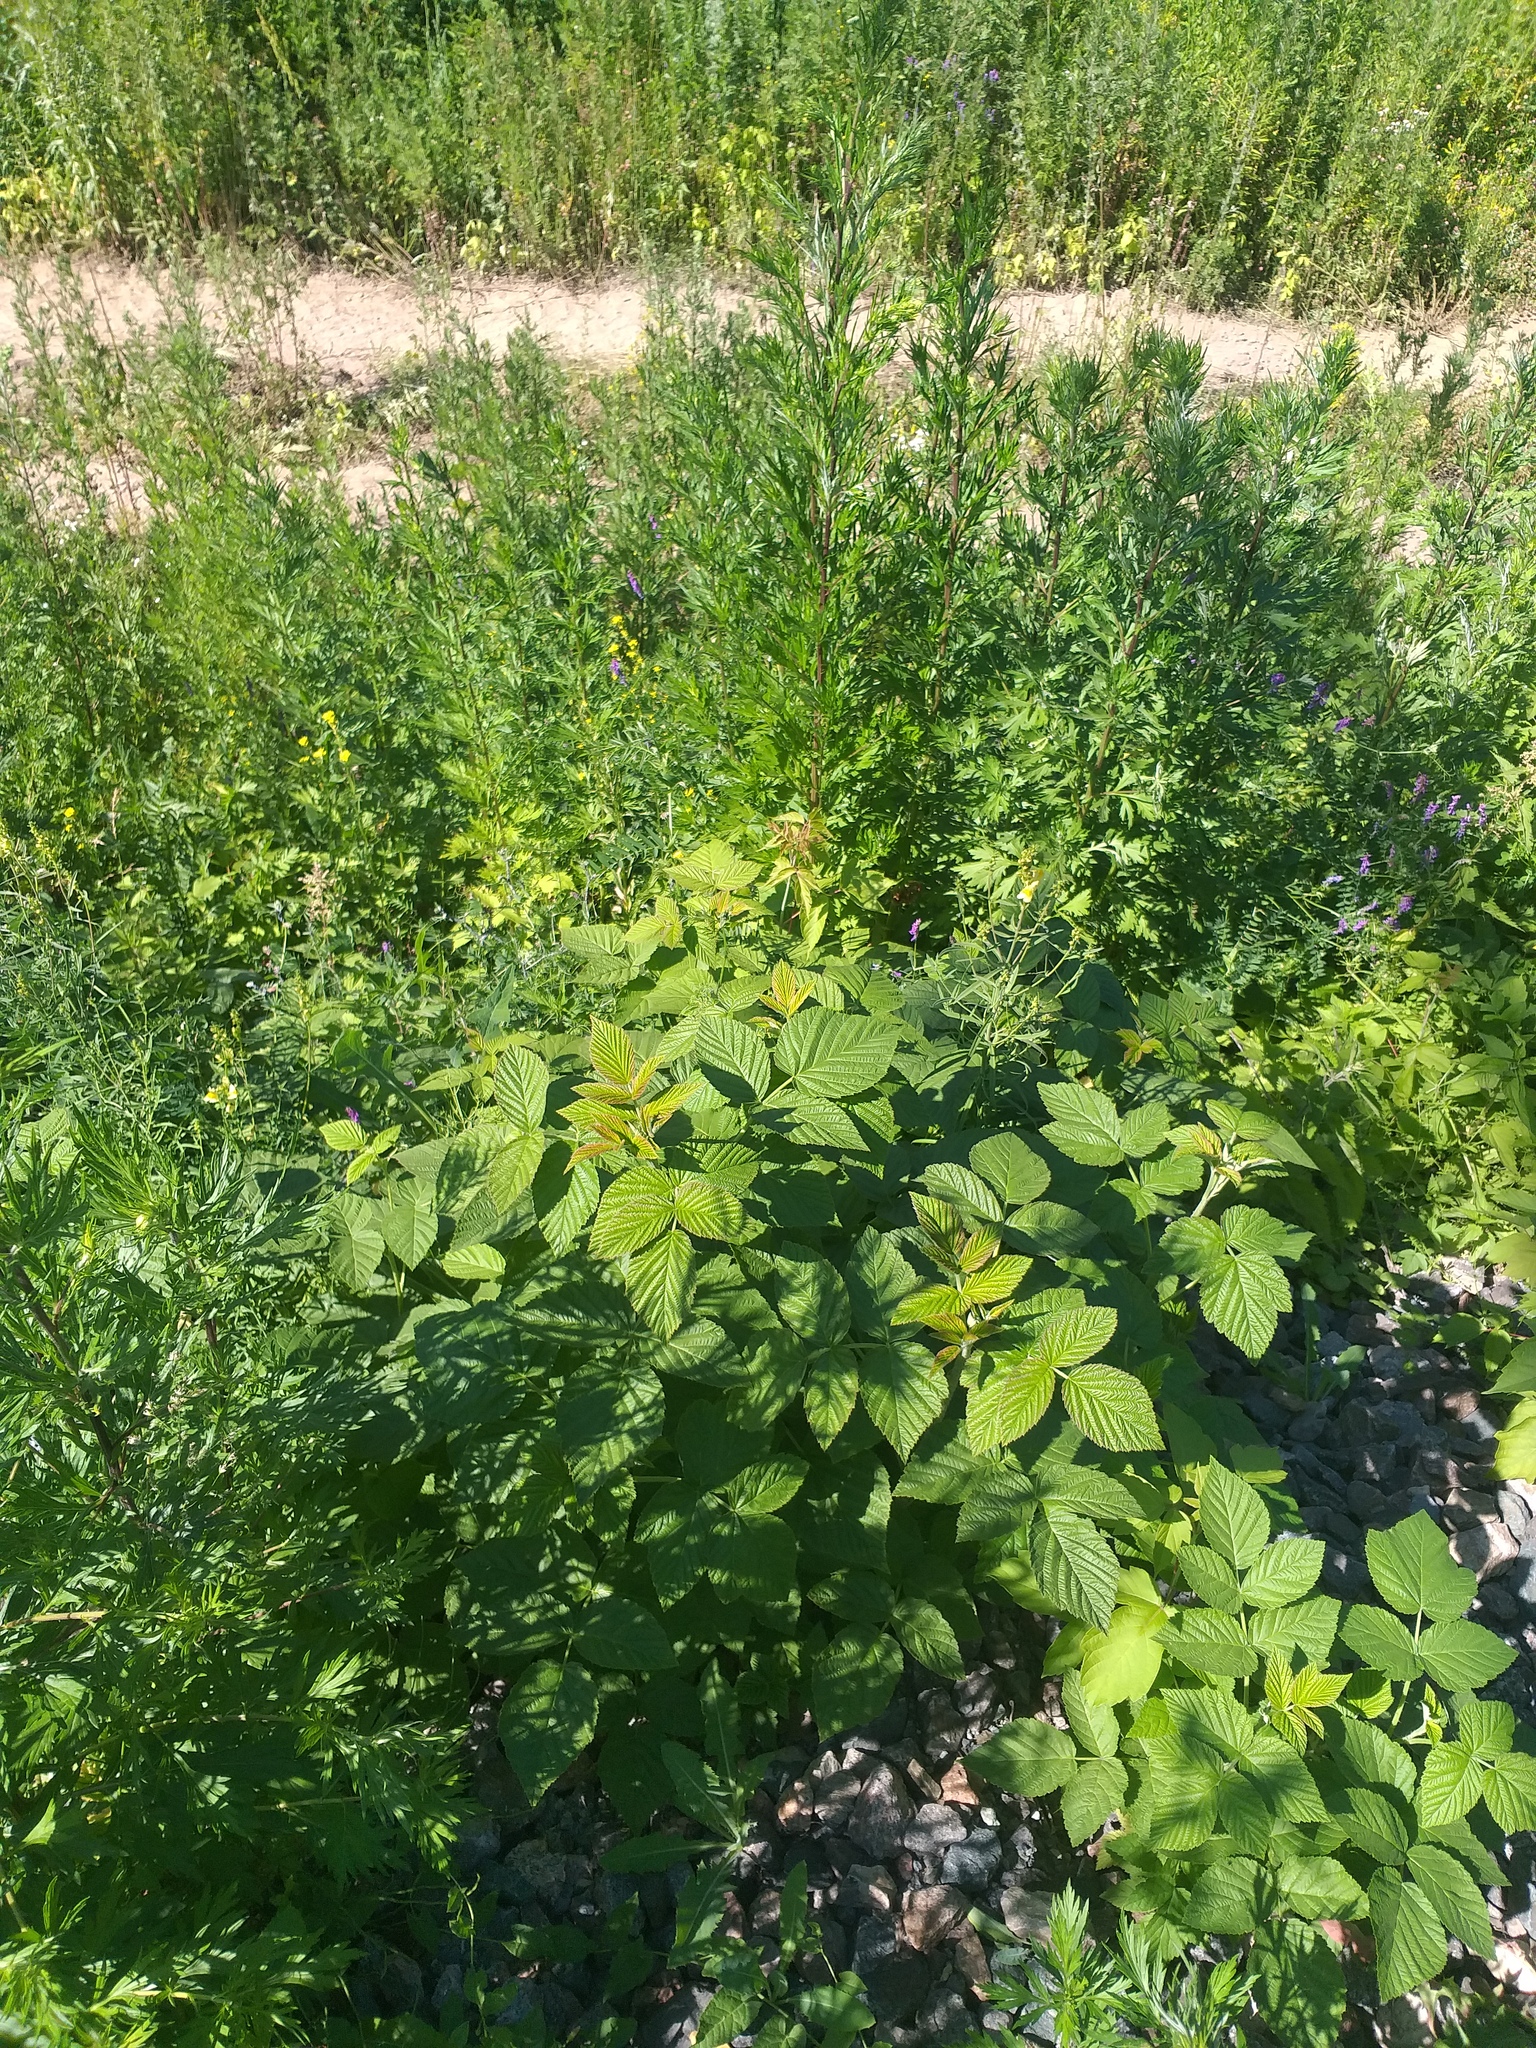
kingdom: Plantae
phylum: Tracheophyta
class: Magnoliopsida
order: Rosales
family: Rosaceae
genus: Rubus
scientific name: Rubus idaeus
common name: Raspberry
